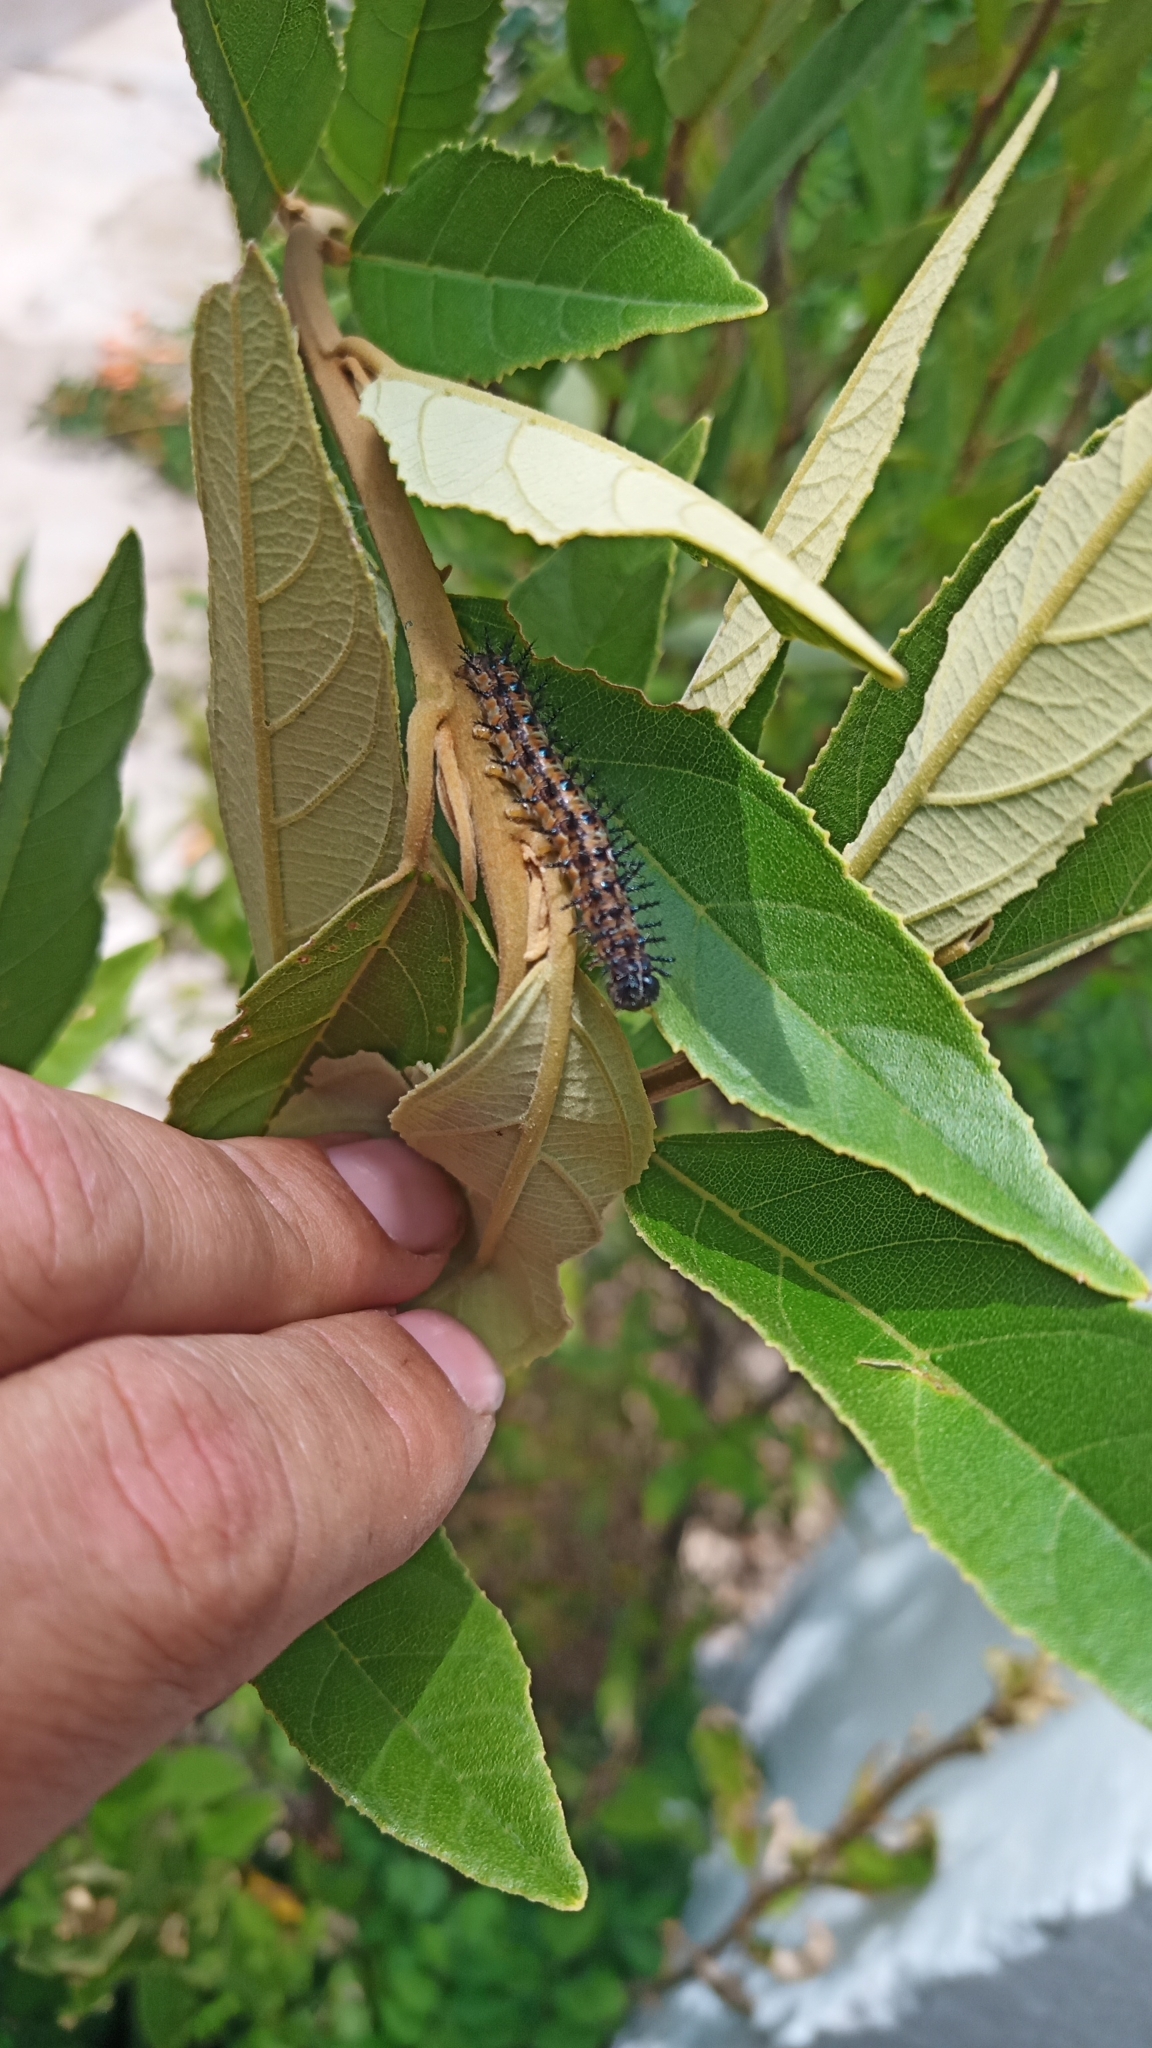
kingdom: Animalia
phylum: Arthropoda
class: Insecta
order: Lepidoptera
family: Nymphalidae
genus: Acraea
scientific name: Acraea horta
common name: Garden acraea
